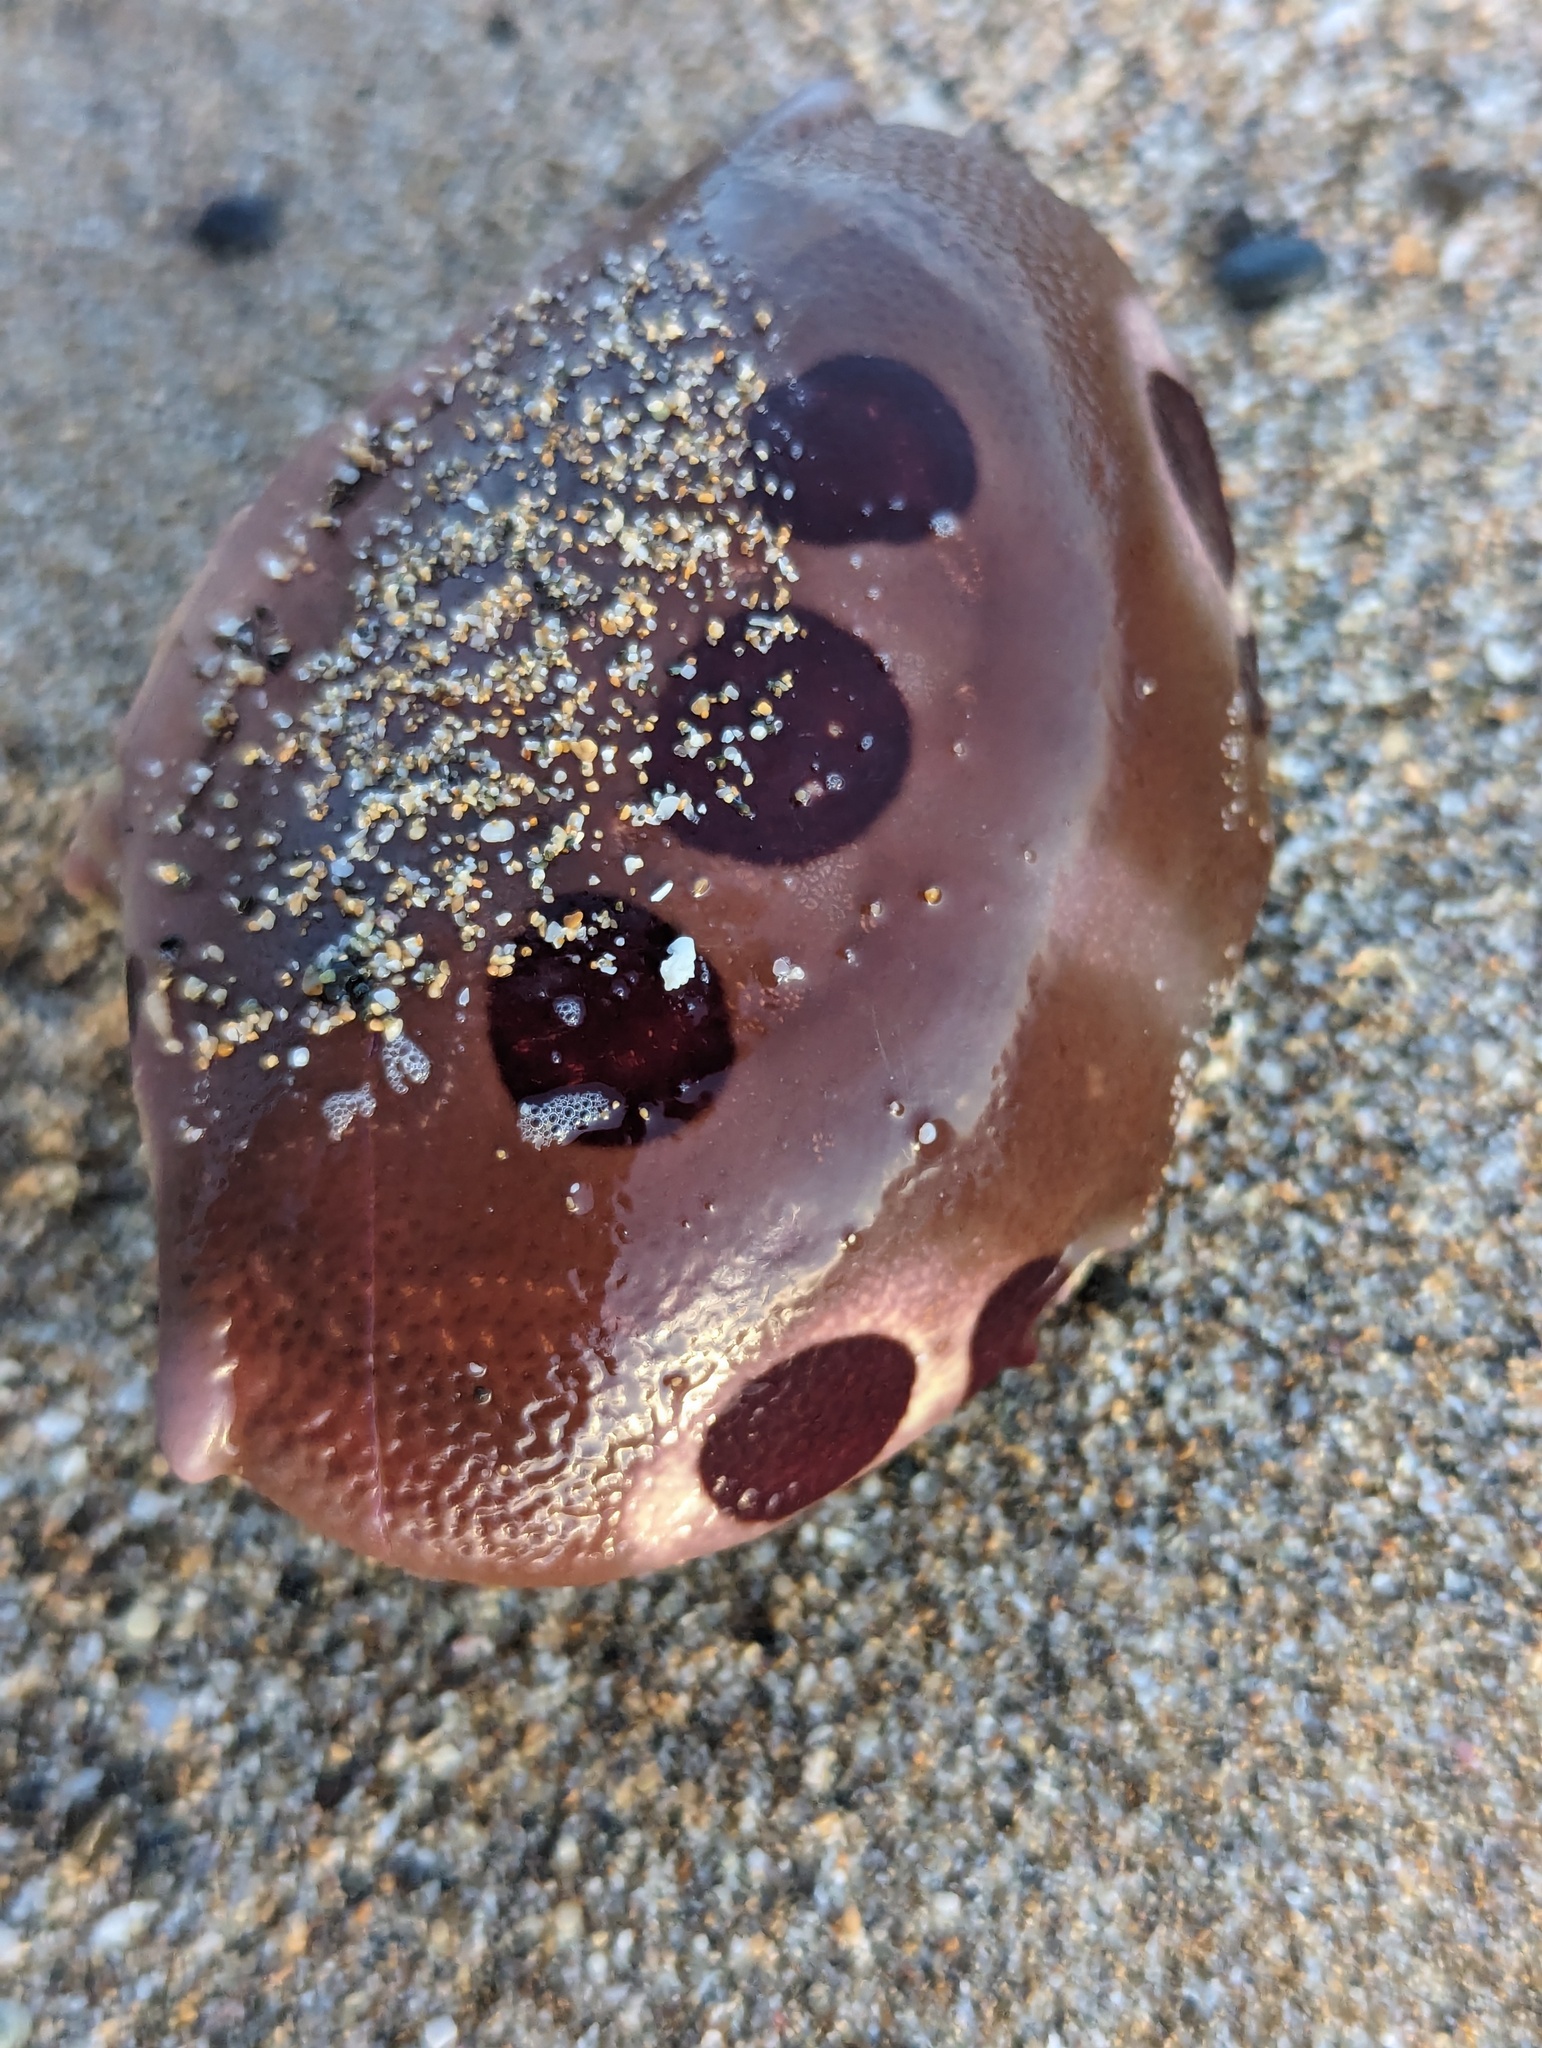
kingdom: Animalia
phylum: Arthropoda
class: Malacostraca
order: Decapoda
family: Carpiliidae
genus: Carpilius
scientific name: Carpilius maculatus
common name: Spotted reef crab
